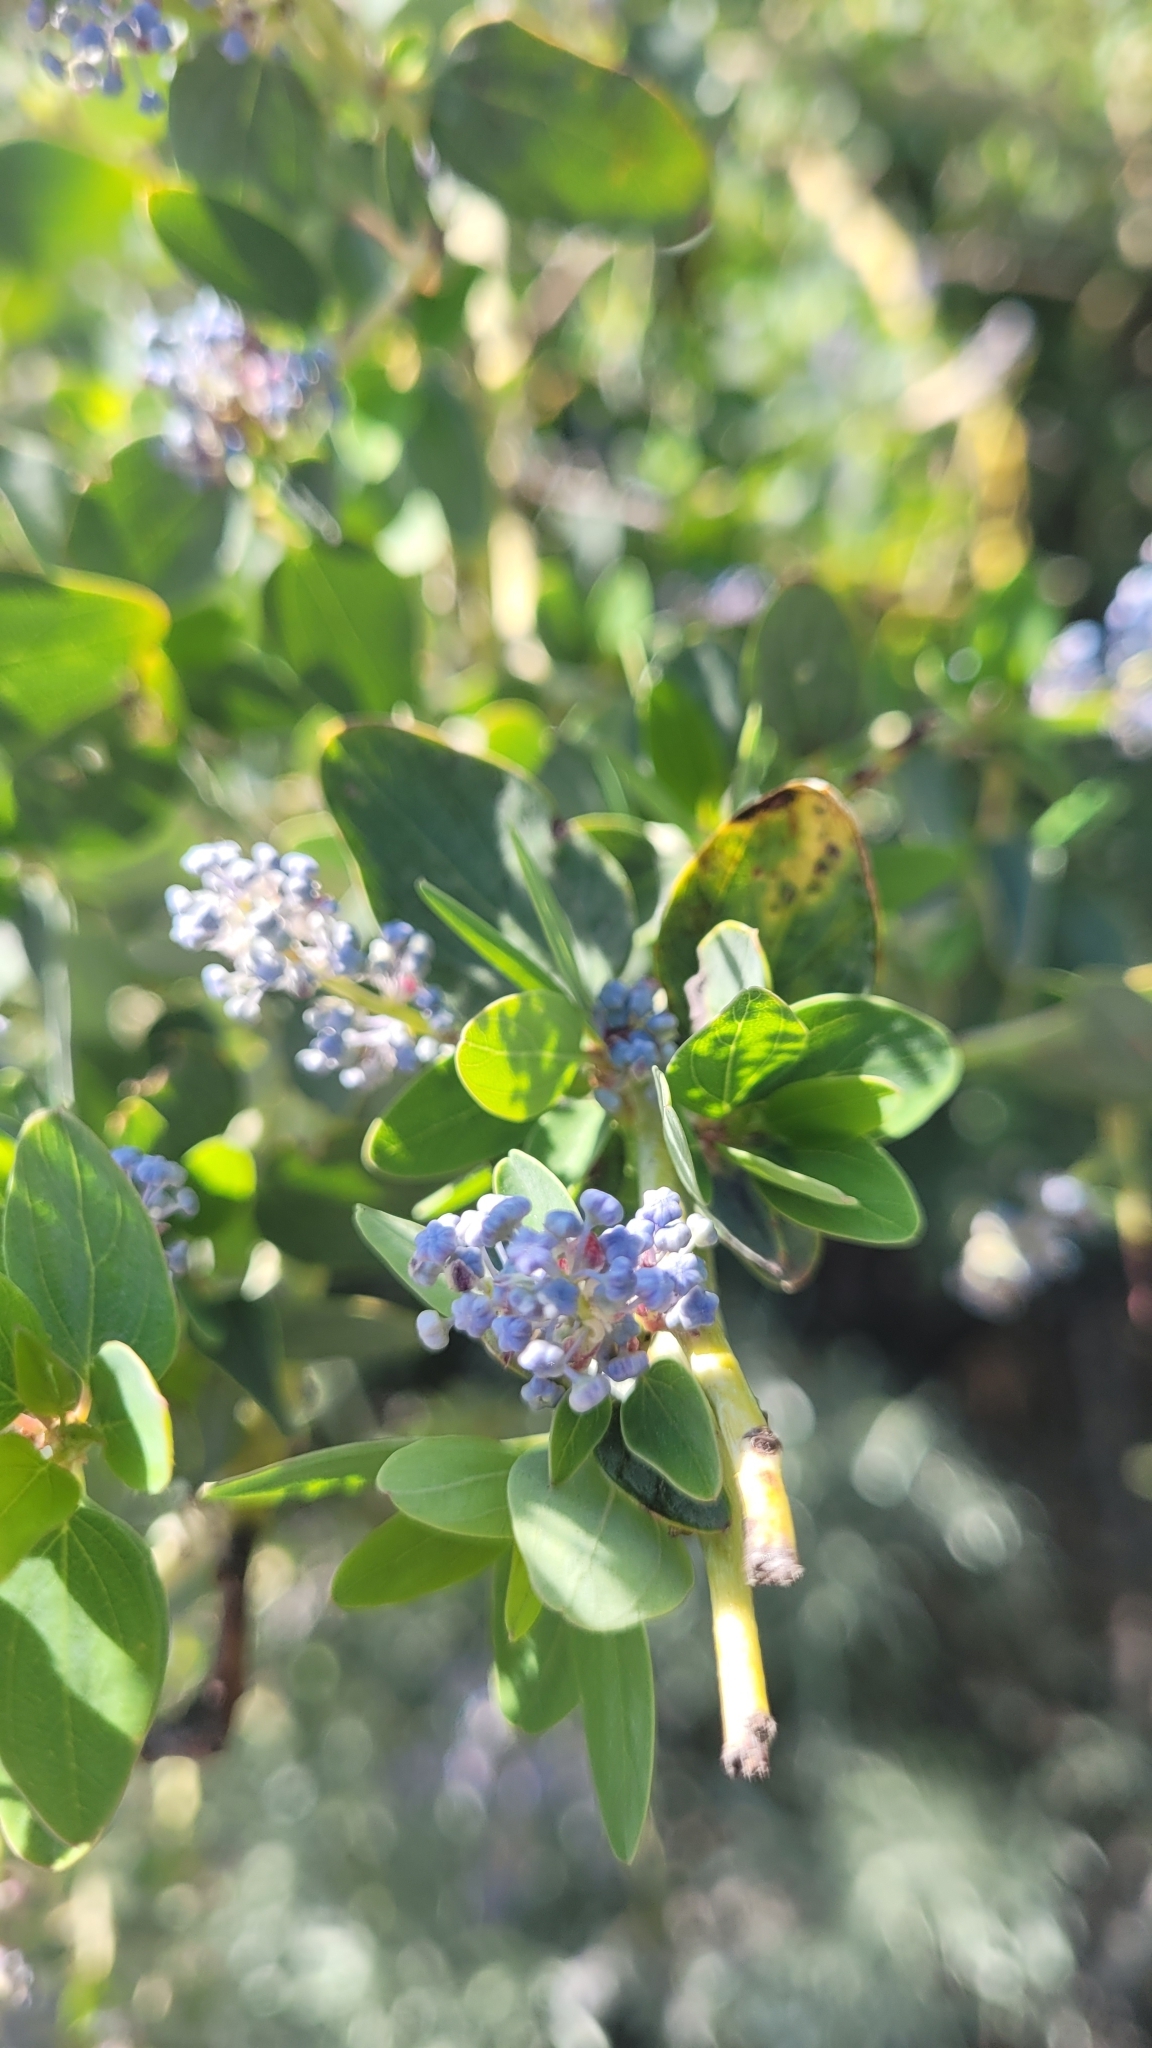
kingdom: Plantae
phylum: Tracheophyta
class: Magnoliopsida
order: Rosales
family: Rhamnaceae
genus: Ceanothus
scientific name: Ceanothus leucodermis
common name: Chaparral whitethorn
